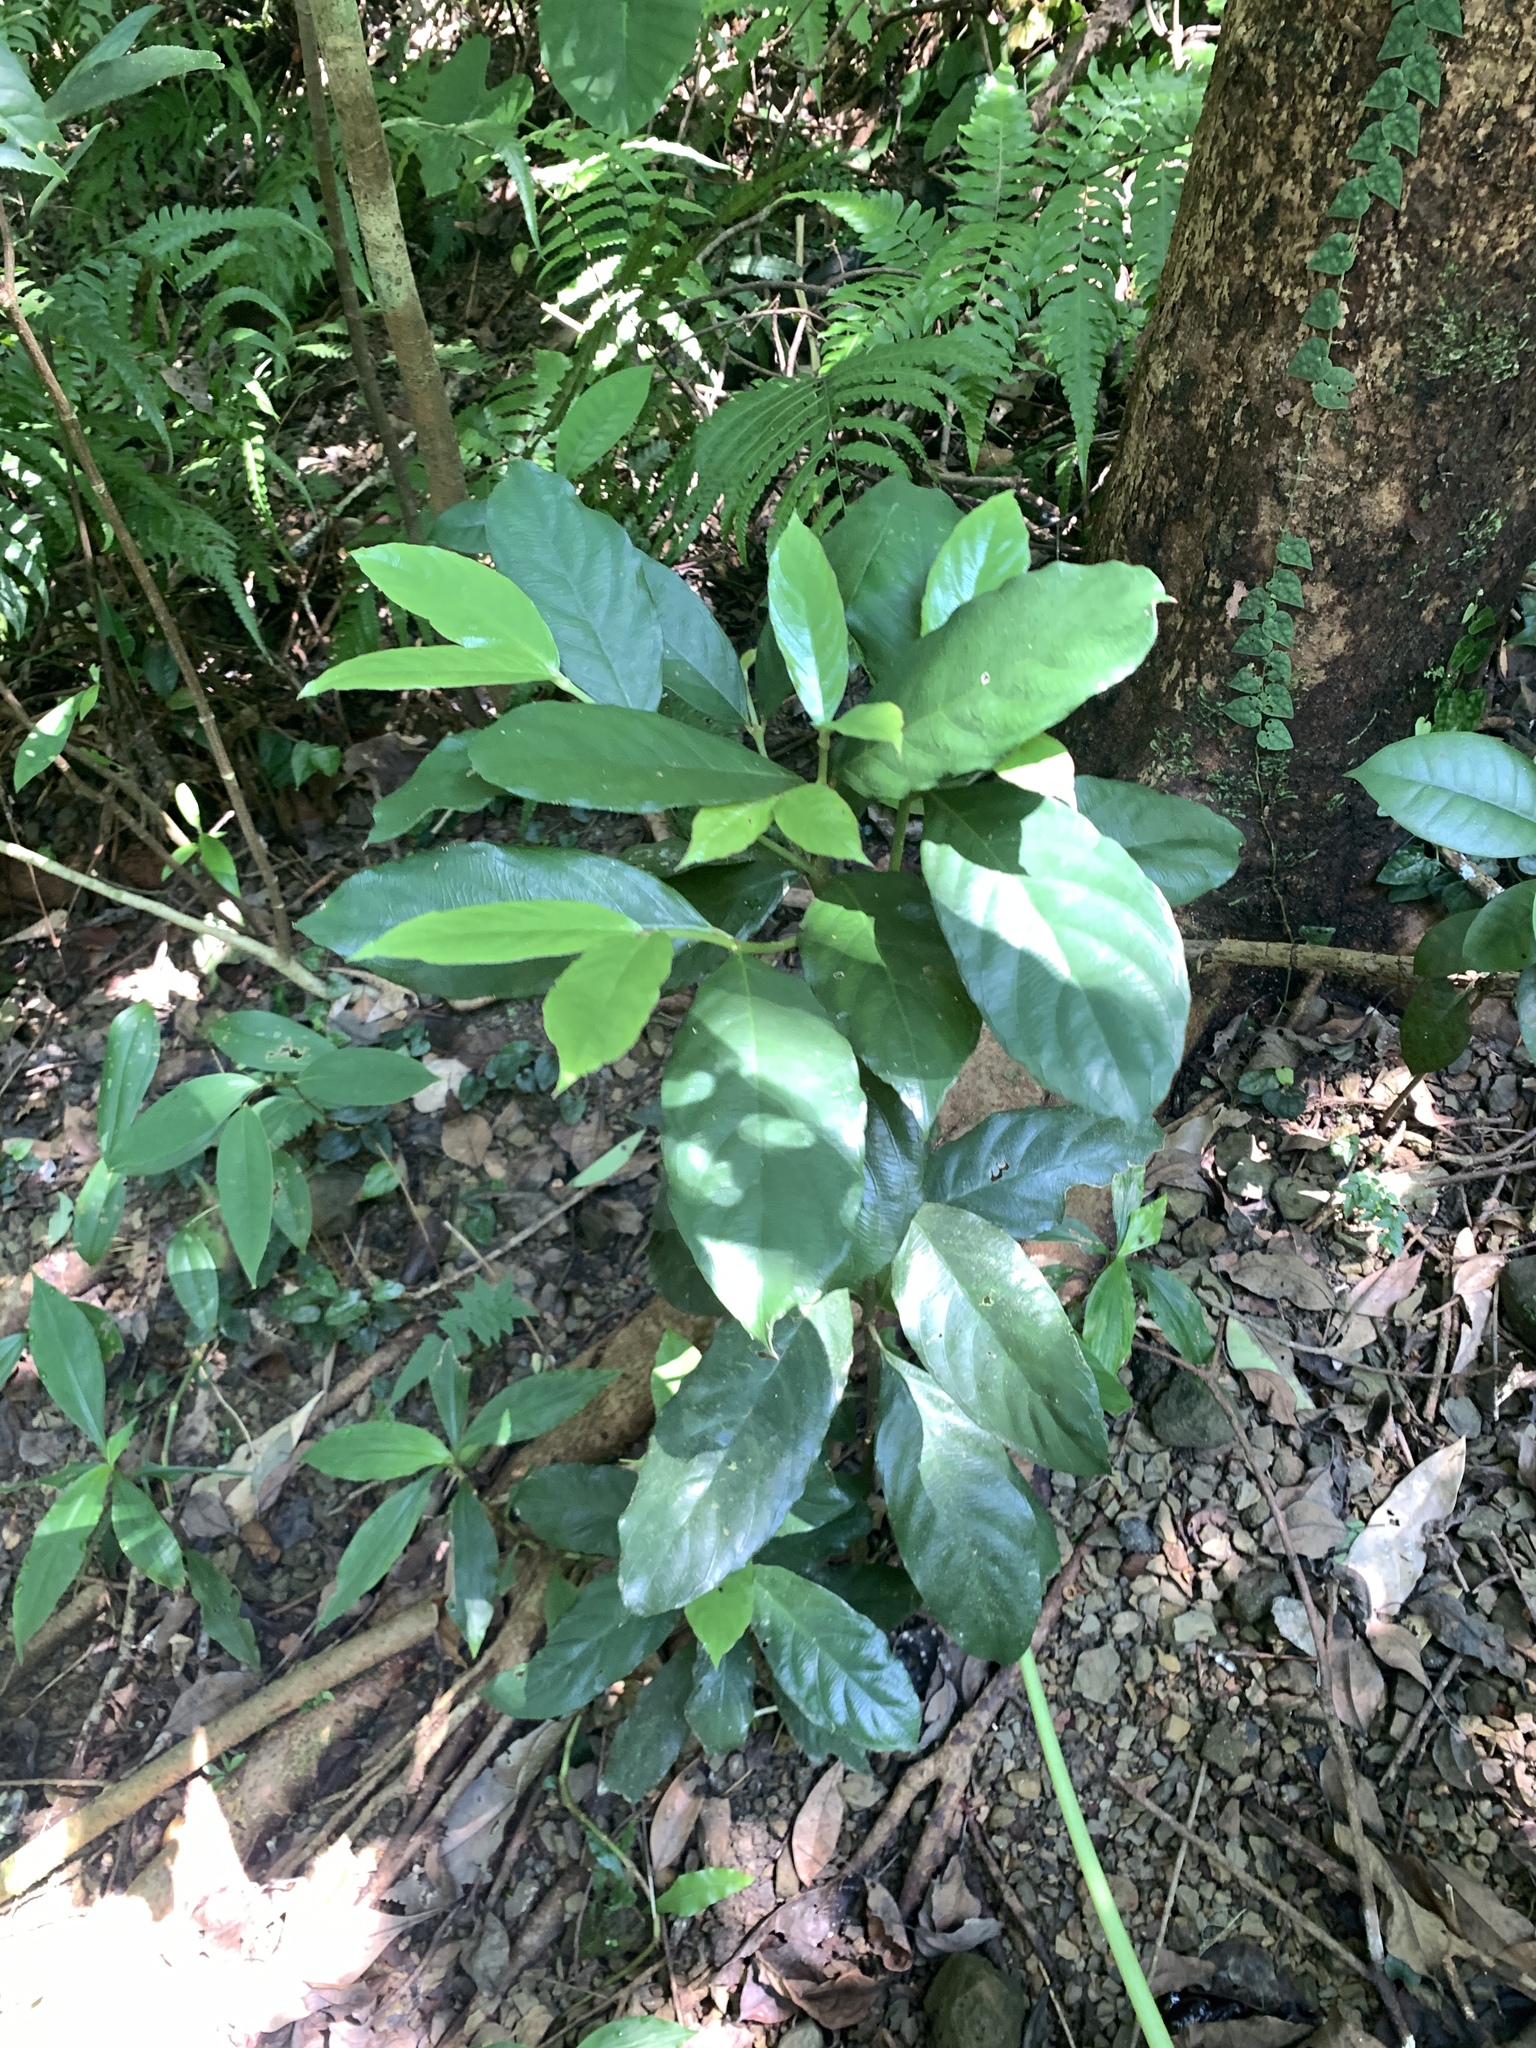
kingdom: Plantae
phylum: Tracheophyta
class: Magnoliopsida
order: Gentianales
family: Rubiaceae
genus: Lasianthus
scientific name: Lasianthus verticillatus
